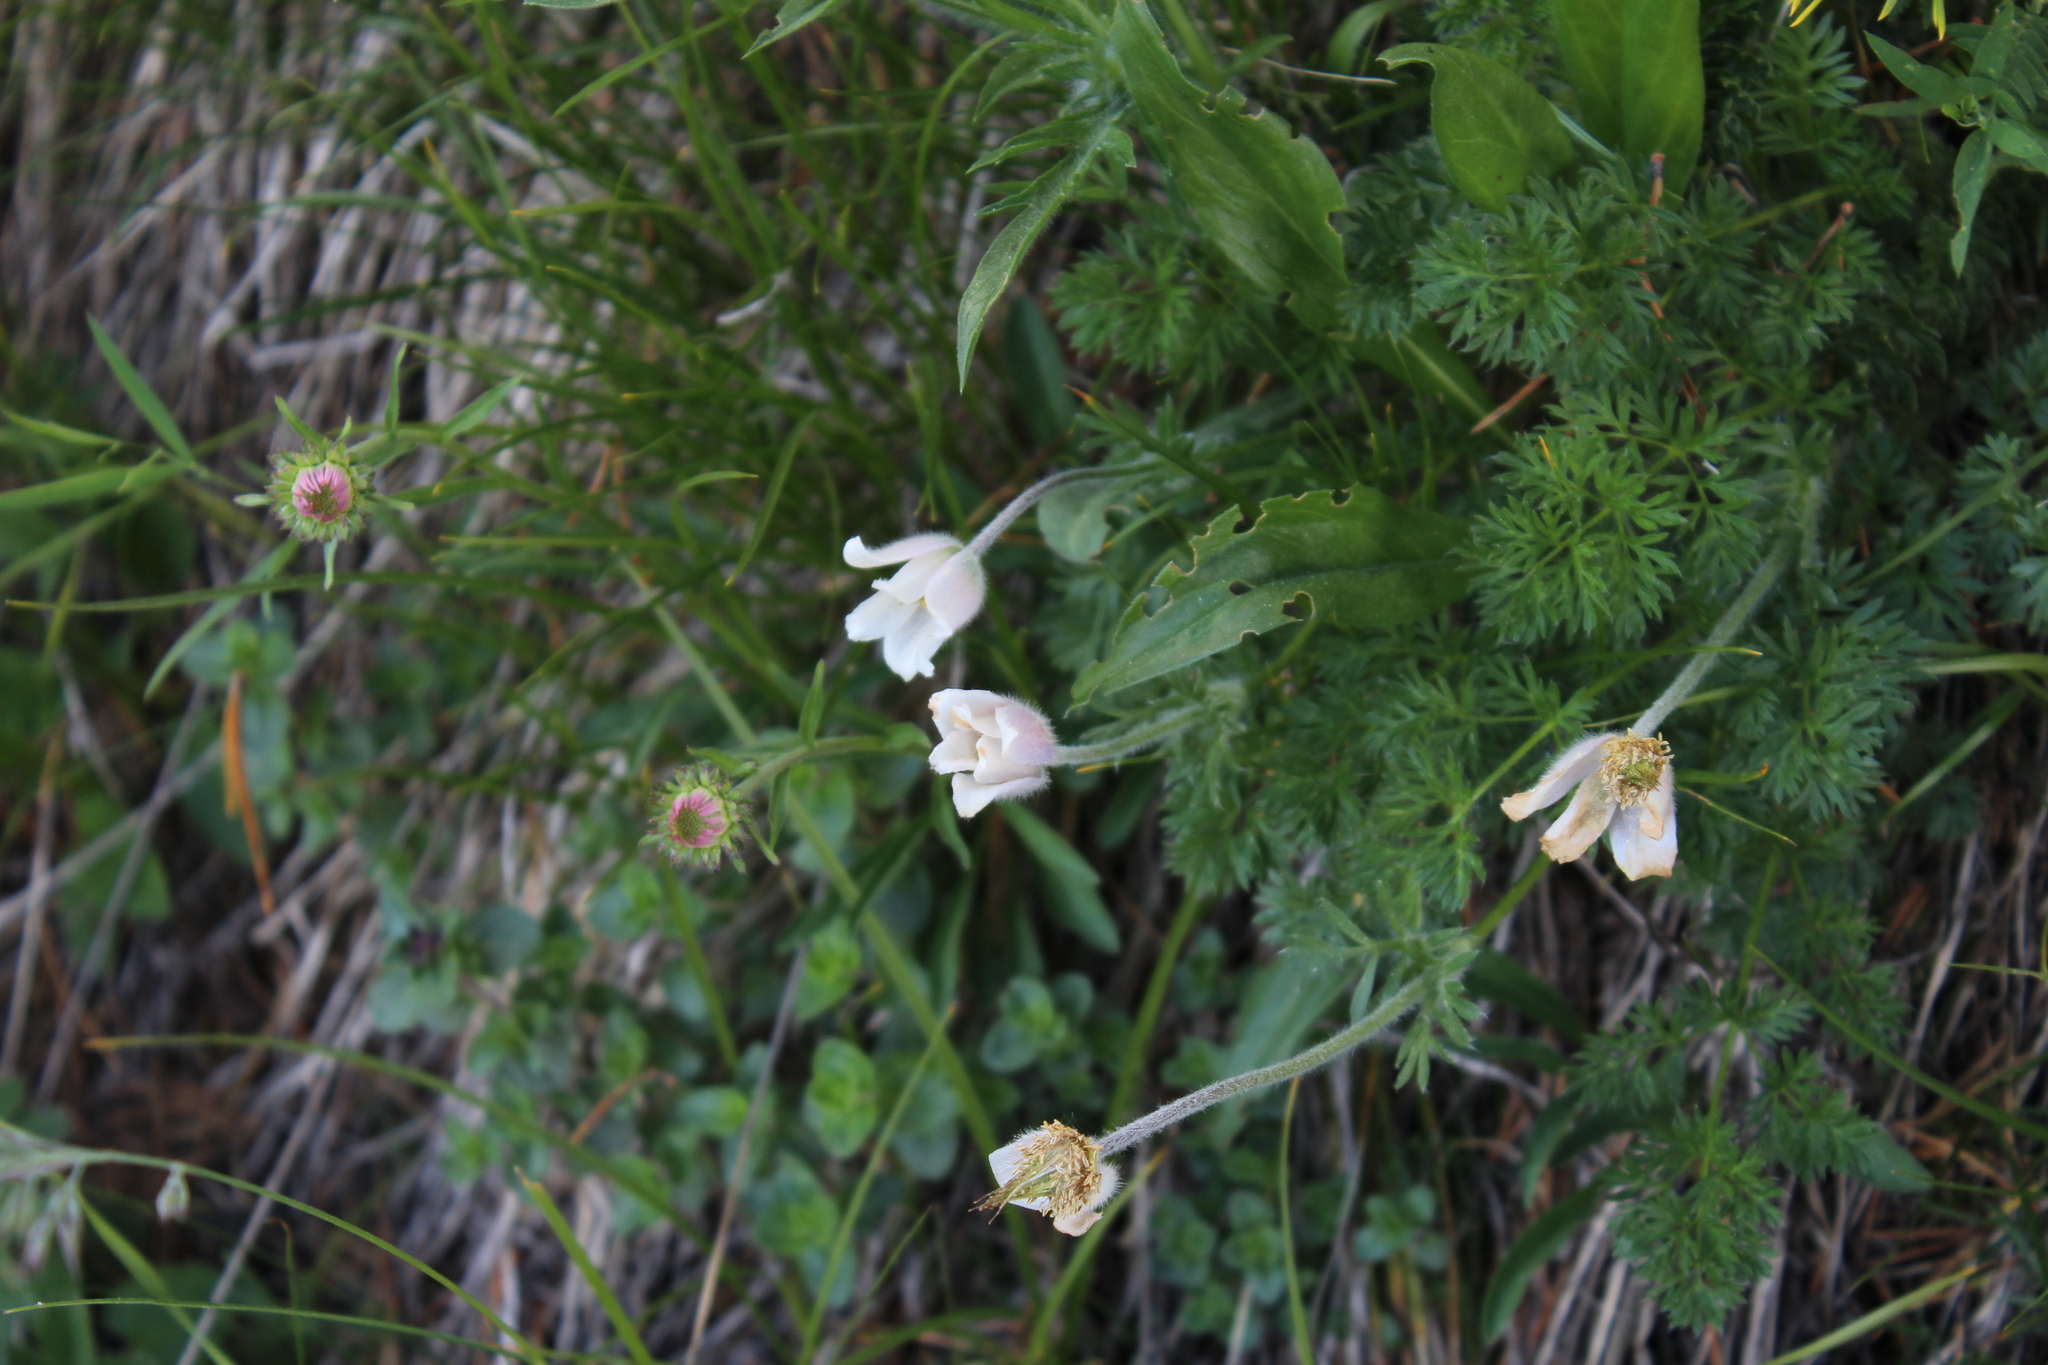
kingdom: Plantae
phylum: Tracheophyta
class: Magnoliopsida
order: Ranunculales
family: Ranunculaceae
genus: Pulsatilla
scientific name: Pulsatilla albana
